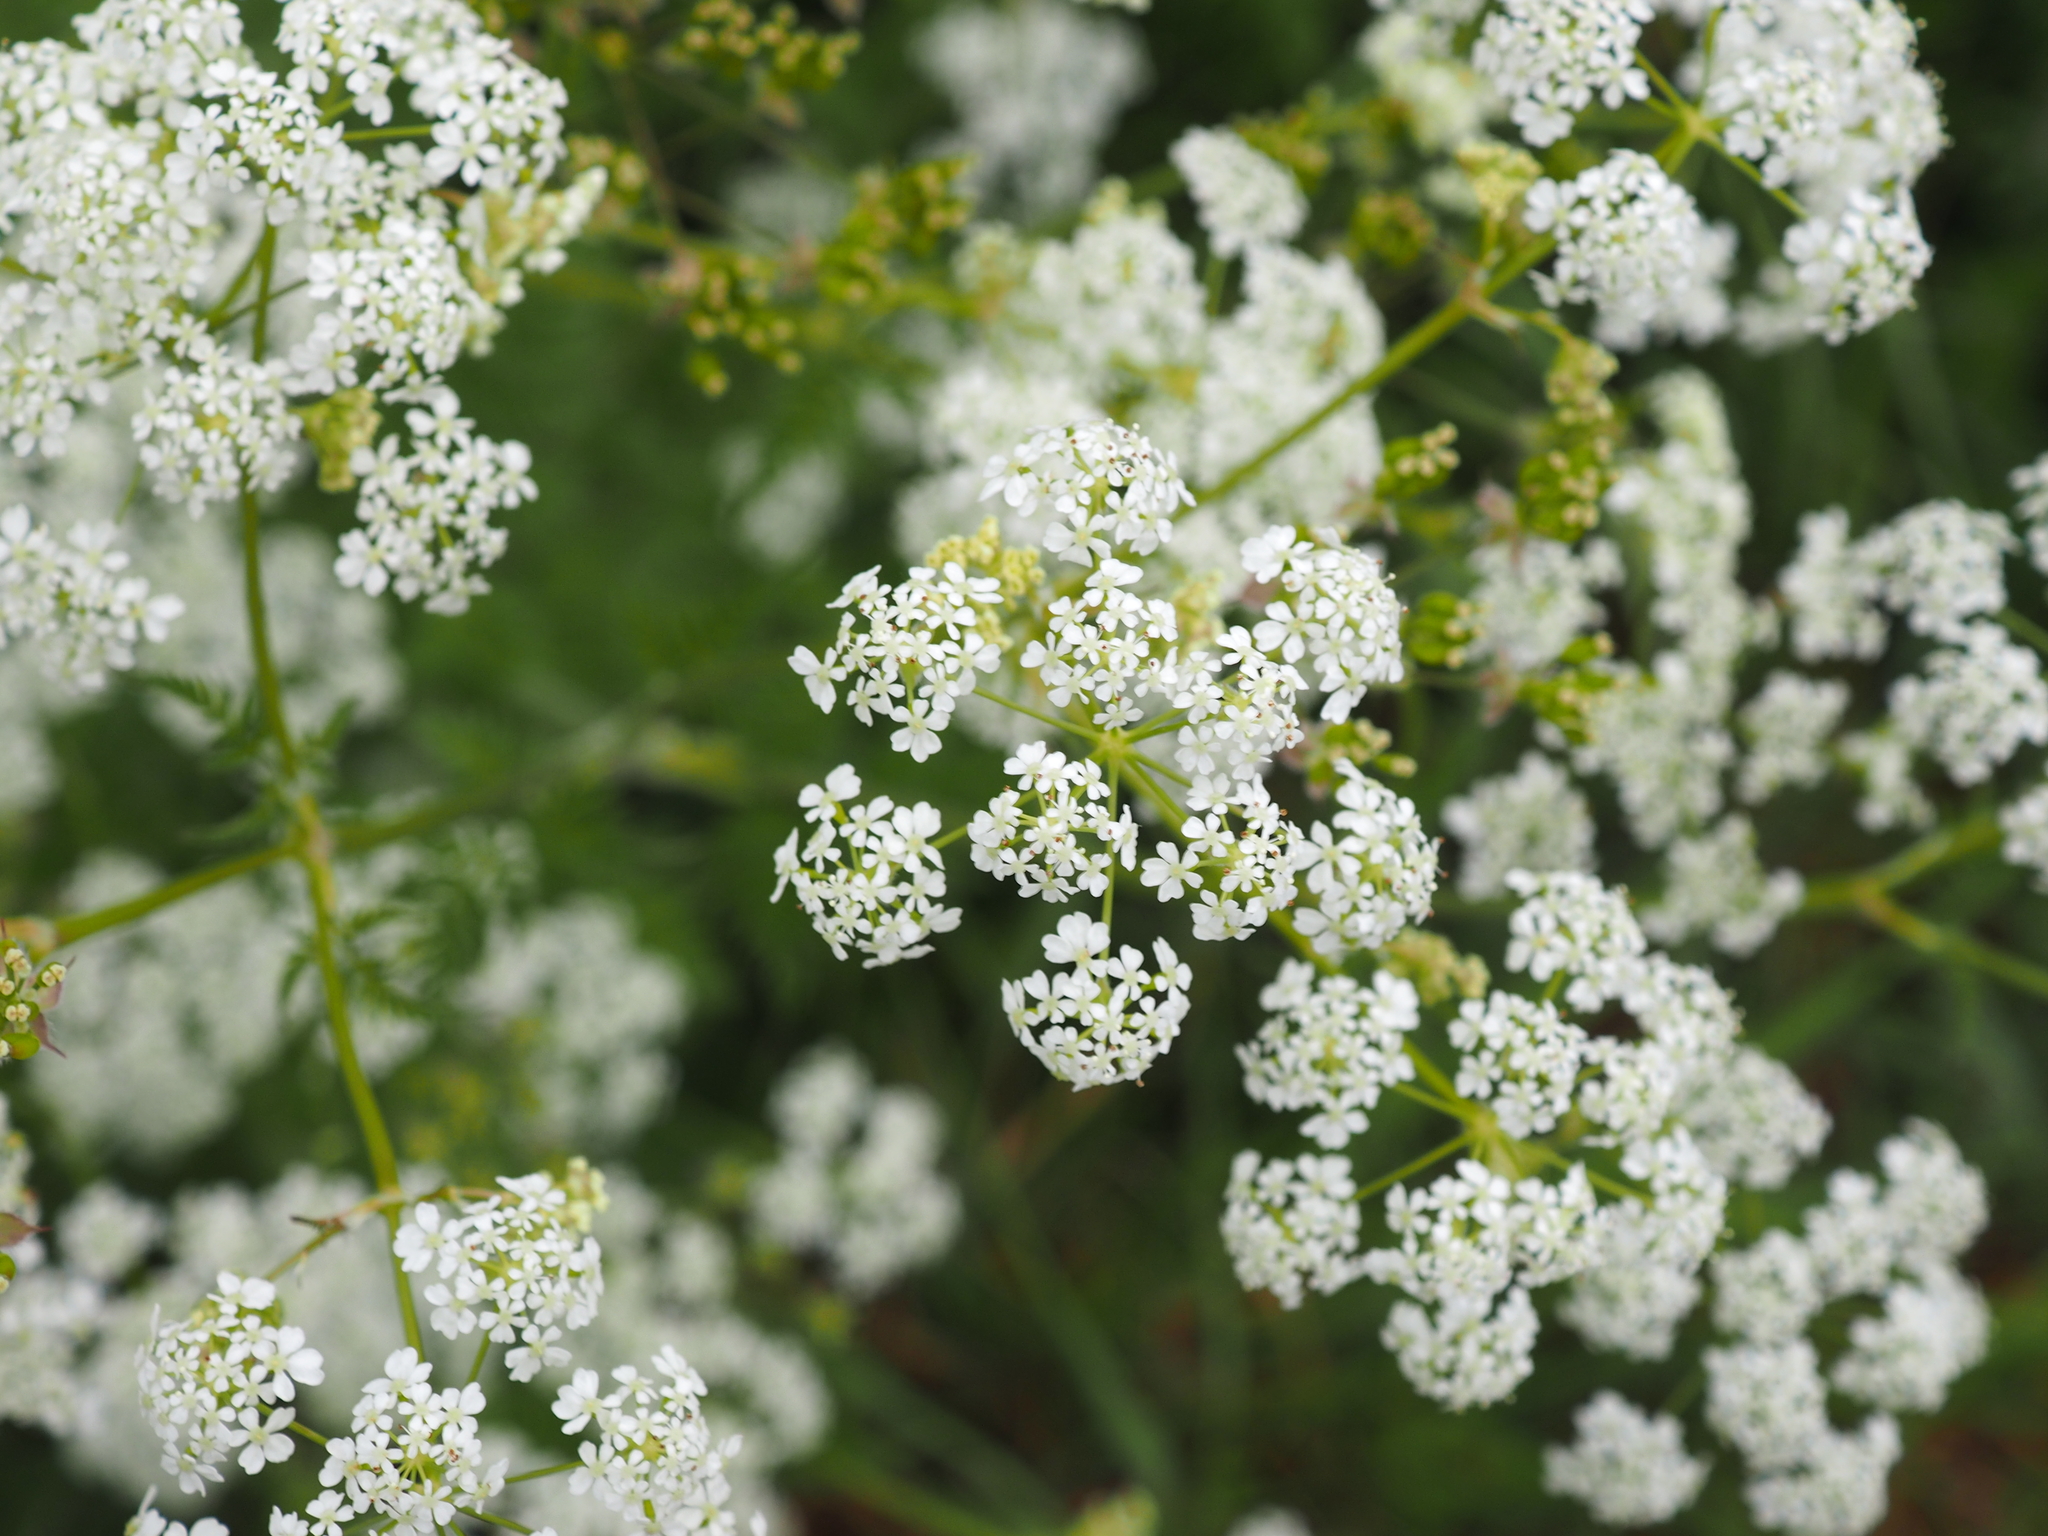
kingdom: Plantae
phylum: Tracheophyta
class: Magnoliopsida
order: Apiales
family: Apiaceae
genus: Anthriscus
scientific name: Anthriscus sylvestris
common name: Cow parsley
